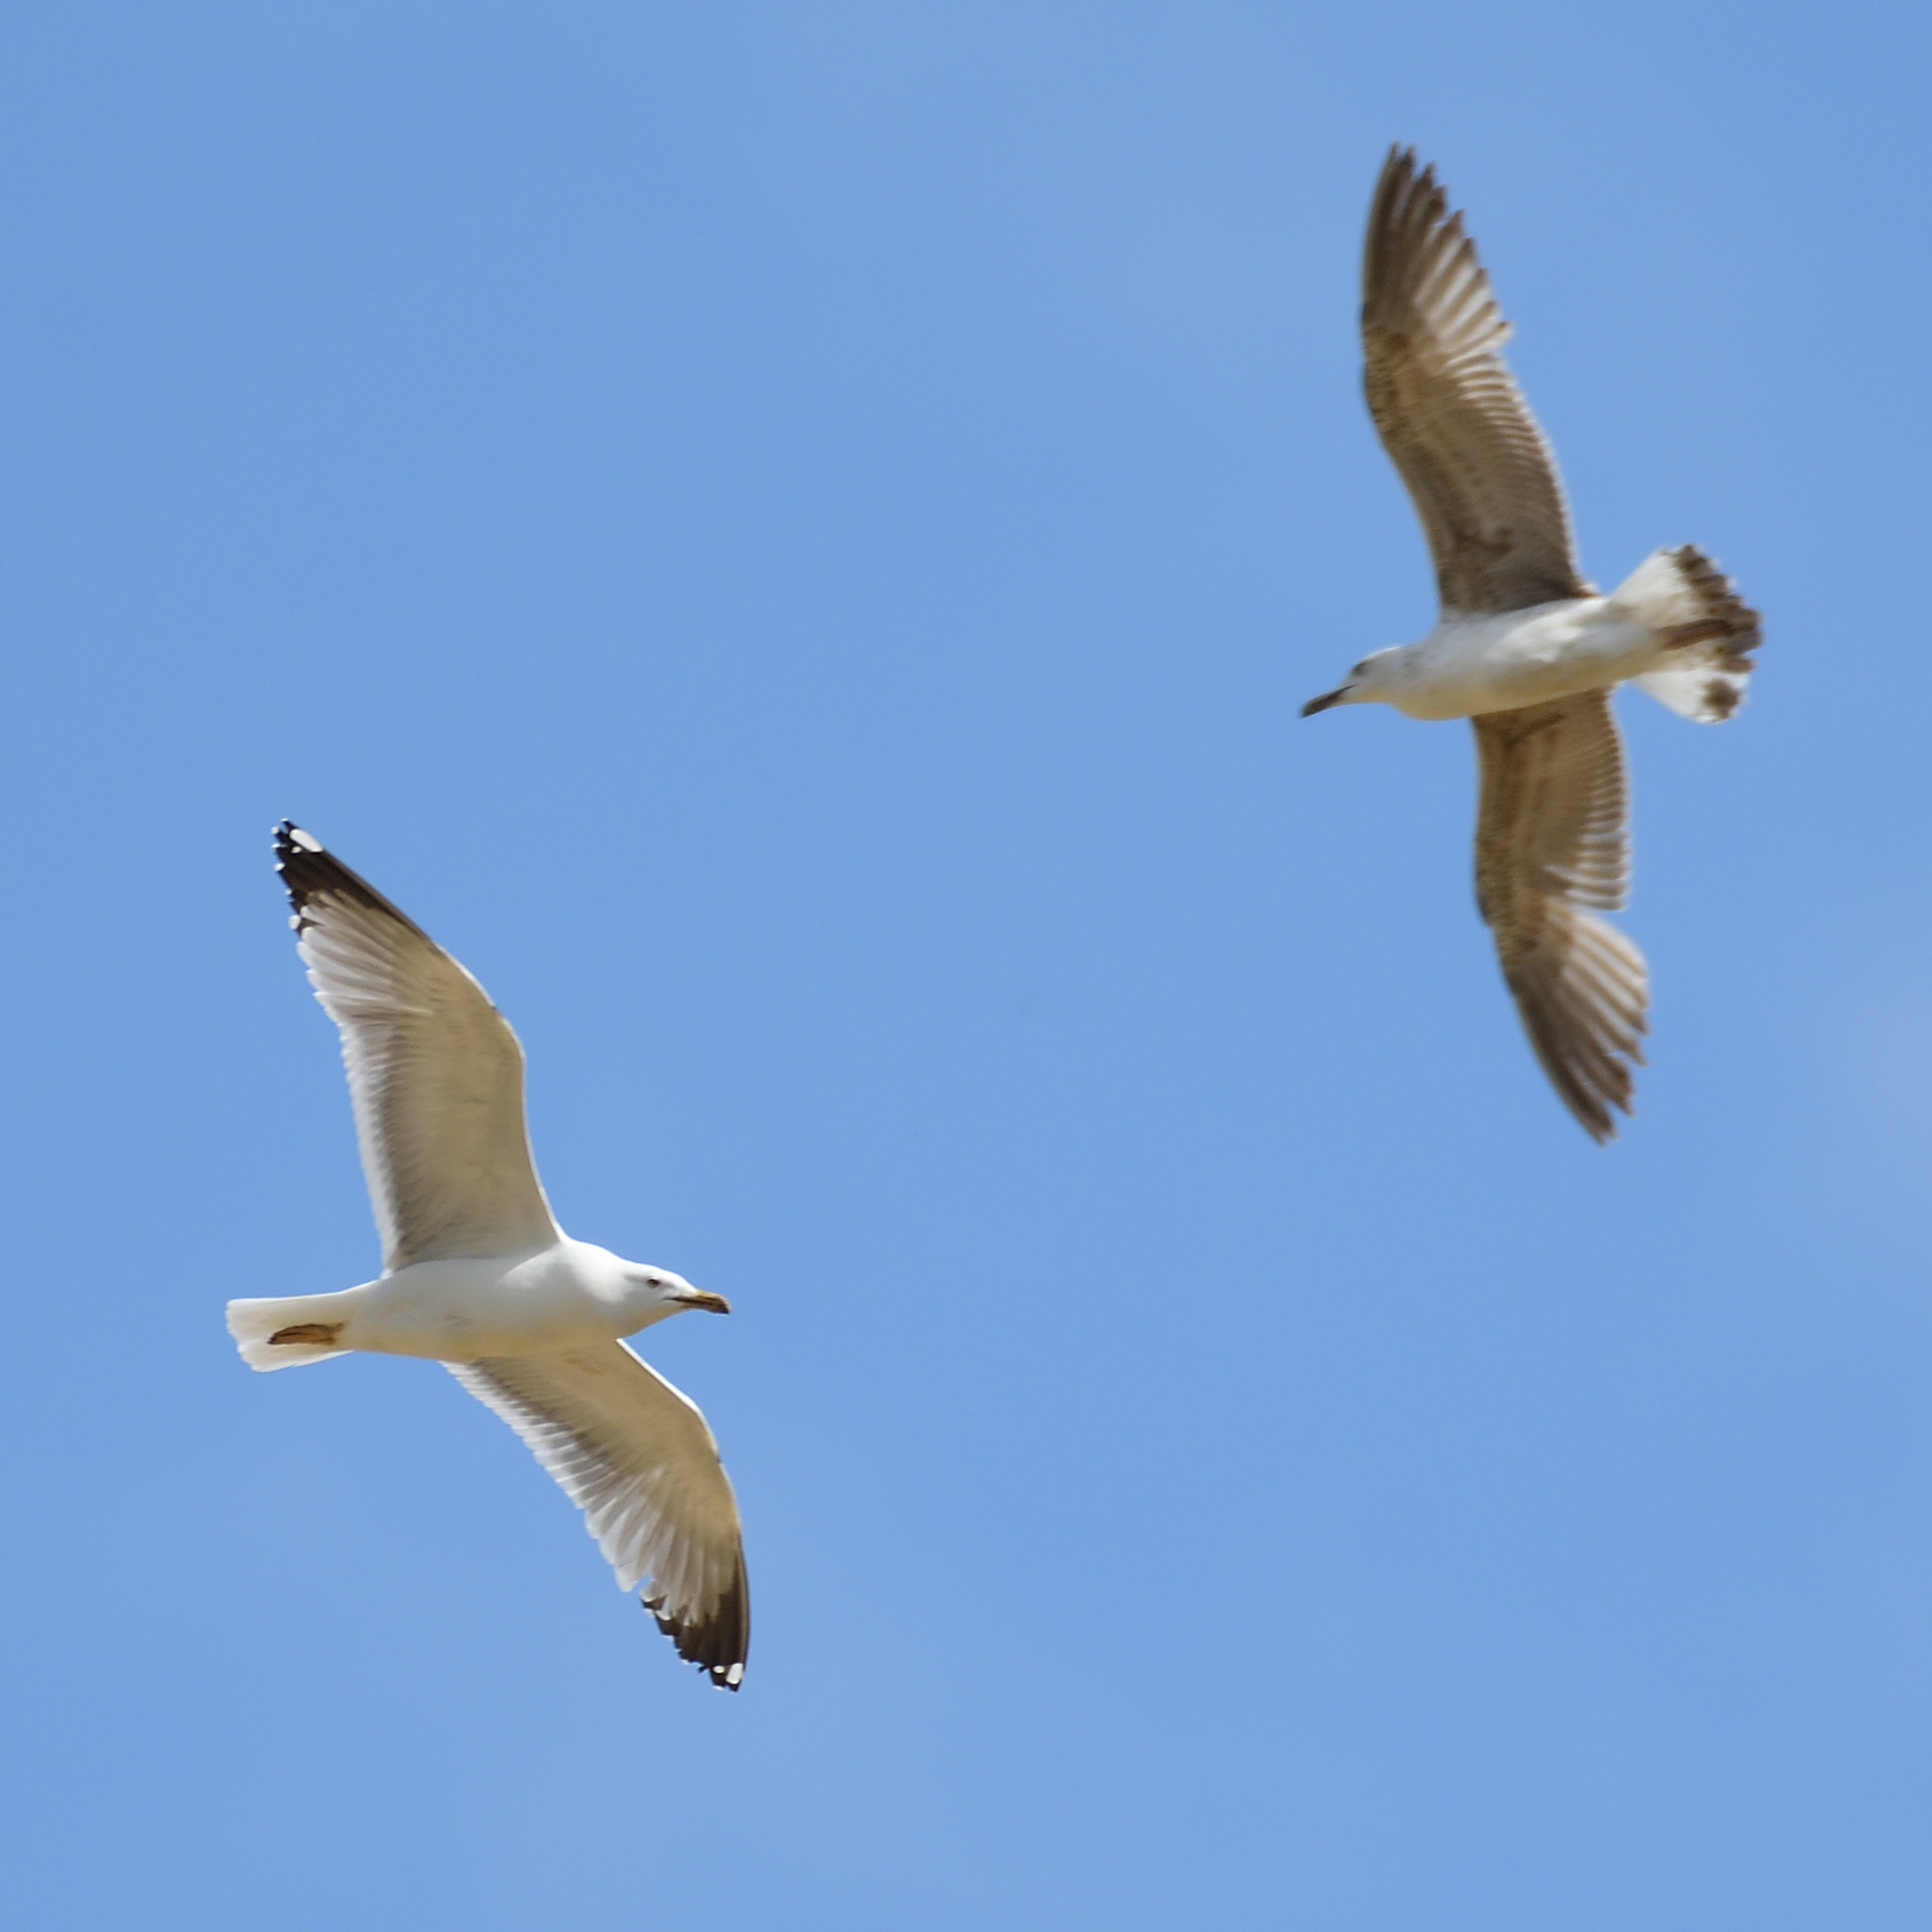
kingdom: Animalia
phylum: Chordata
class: Aves
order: Charadriiformes
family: Laridae
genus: Larus
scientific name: Larus michahellis
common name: Yellow-legged gull
